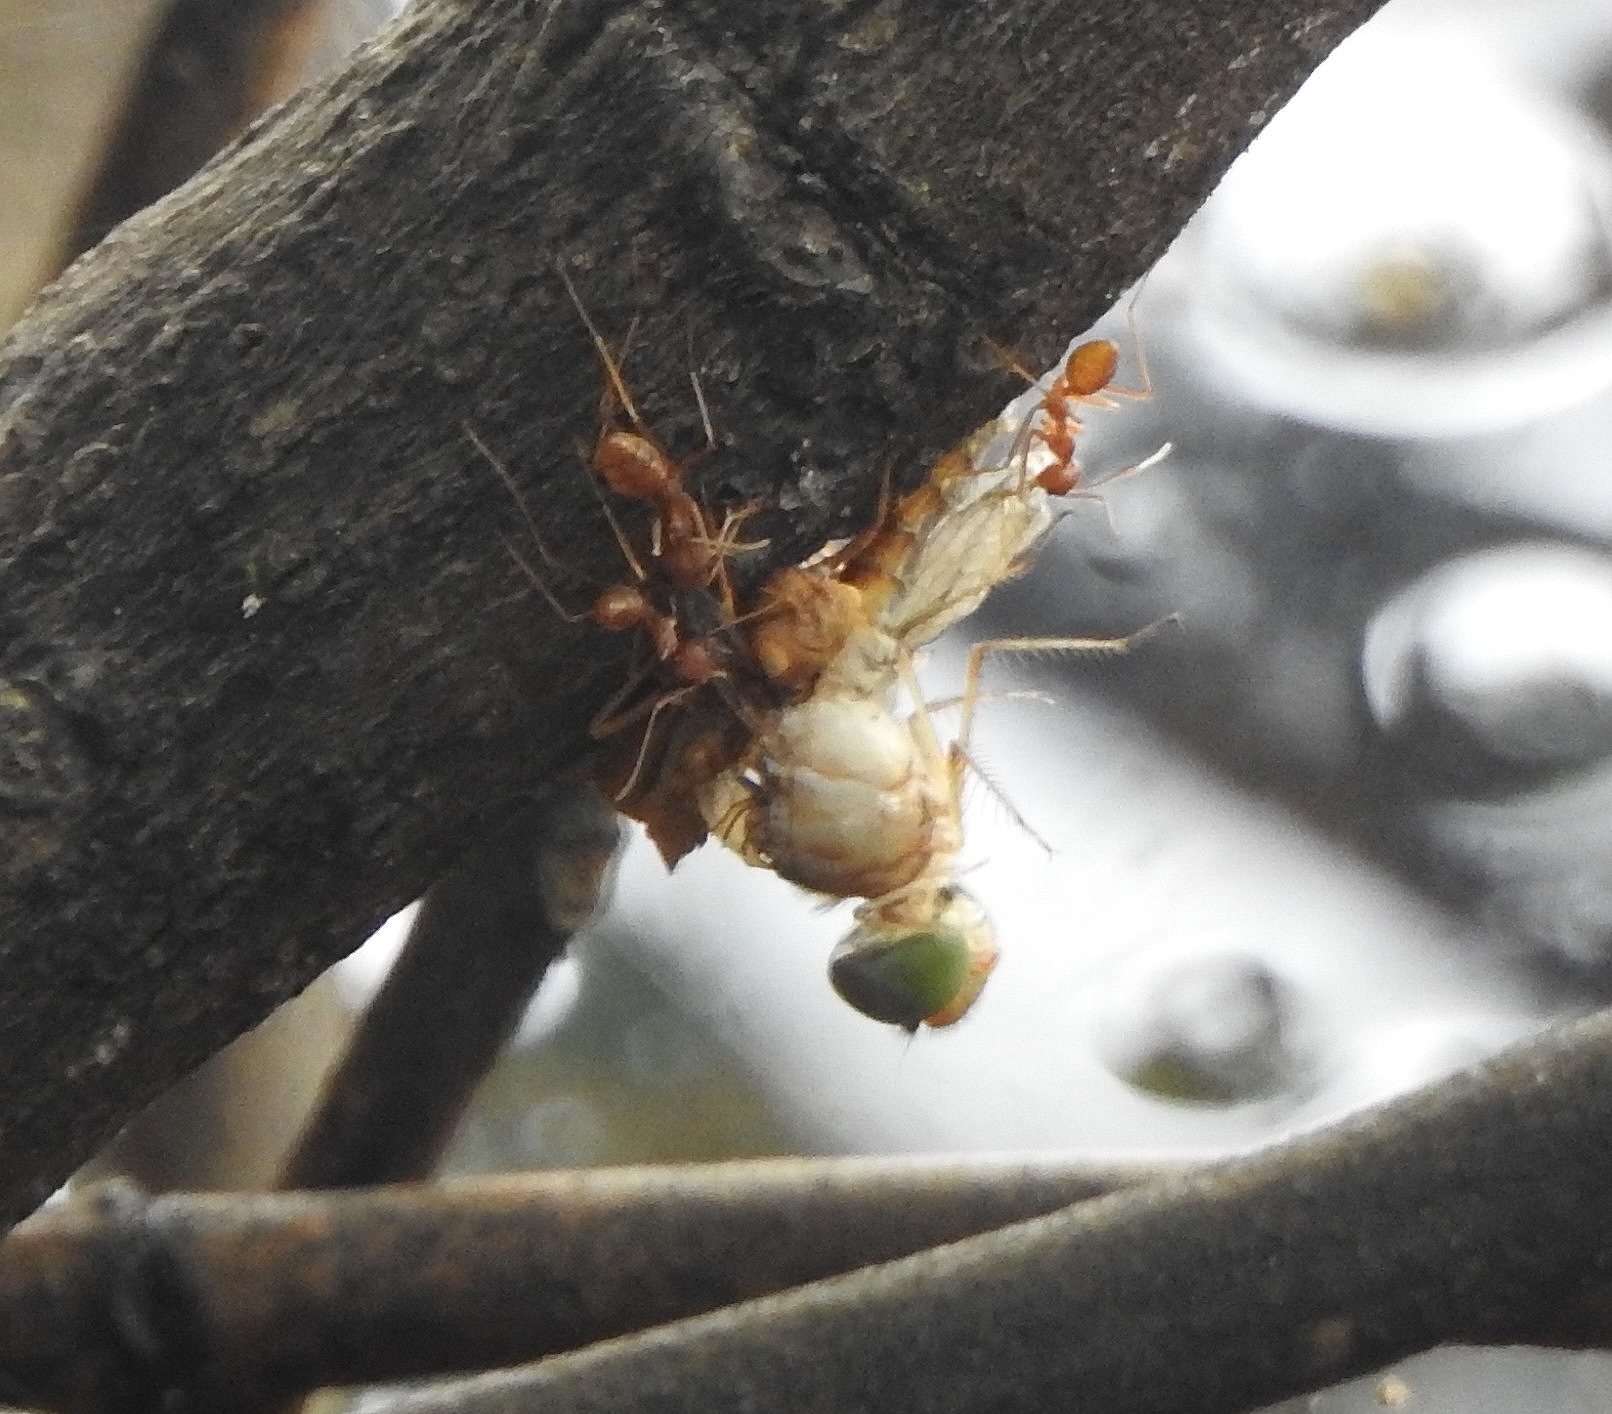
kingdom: Animalia
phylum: Arthropoda
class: Insecta
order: Odonata
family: Libellulidae
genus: Tholymis
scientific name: Tholymis tillarga
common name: Coral-tailed cloud wing
